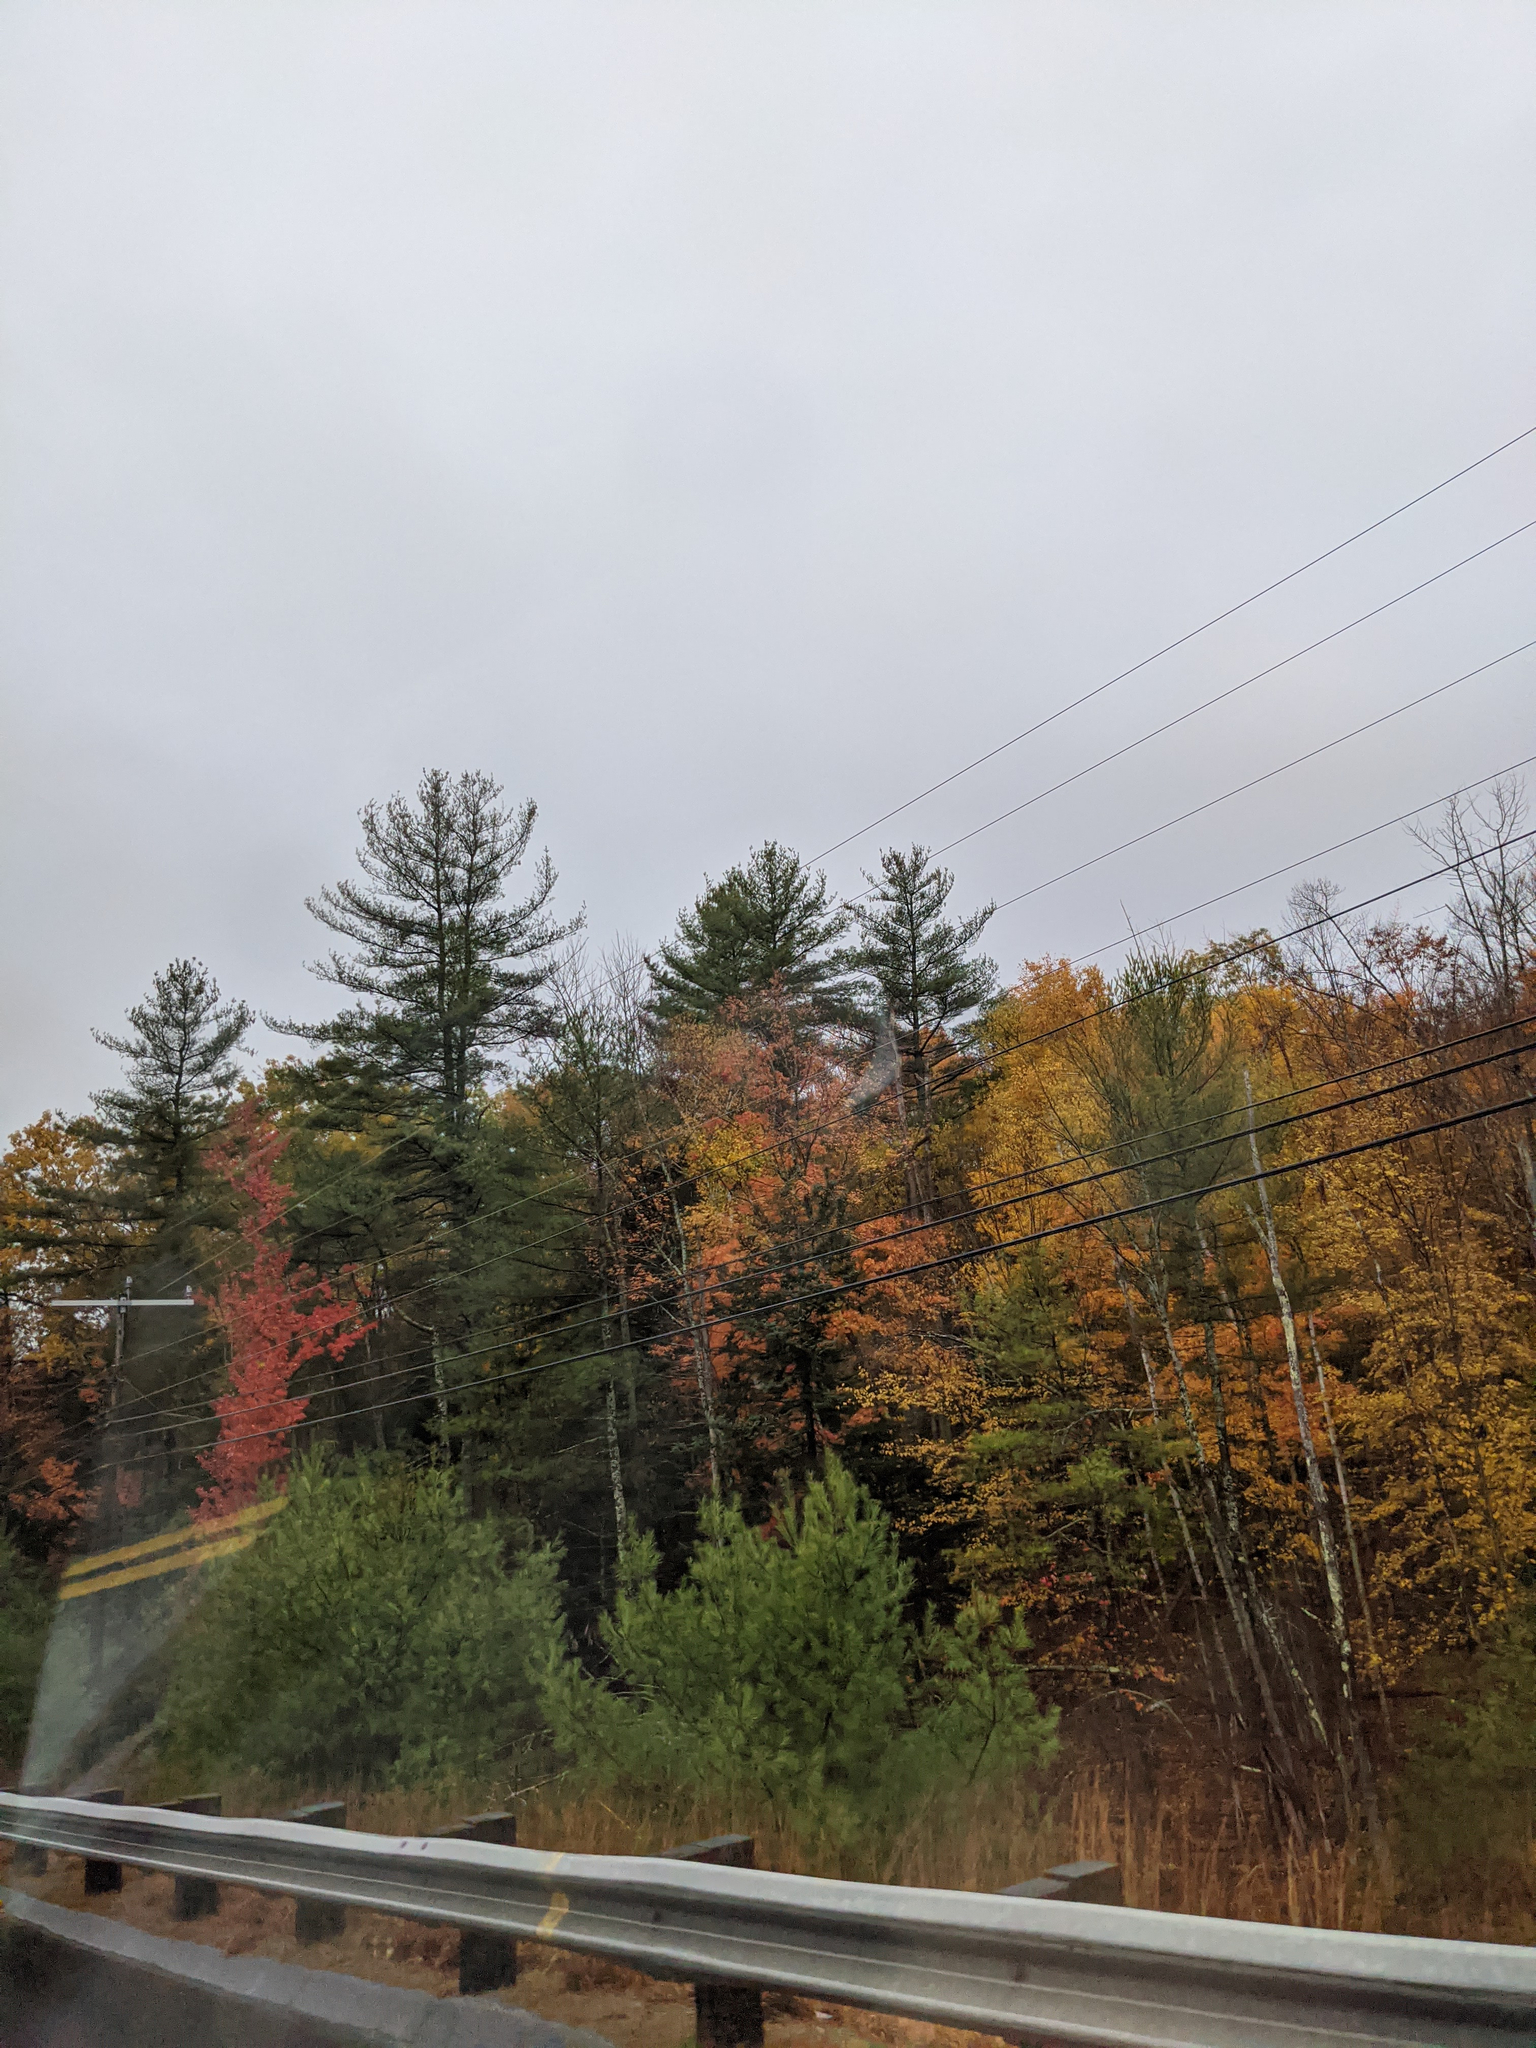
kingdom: Plantae
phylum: Tracheophyta
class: Pinopsida
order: Pinales
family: Pinaceae
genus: Pinus
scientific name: Pinus strobus
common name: Weymouth pine
